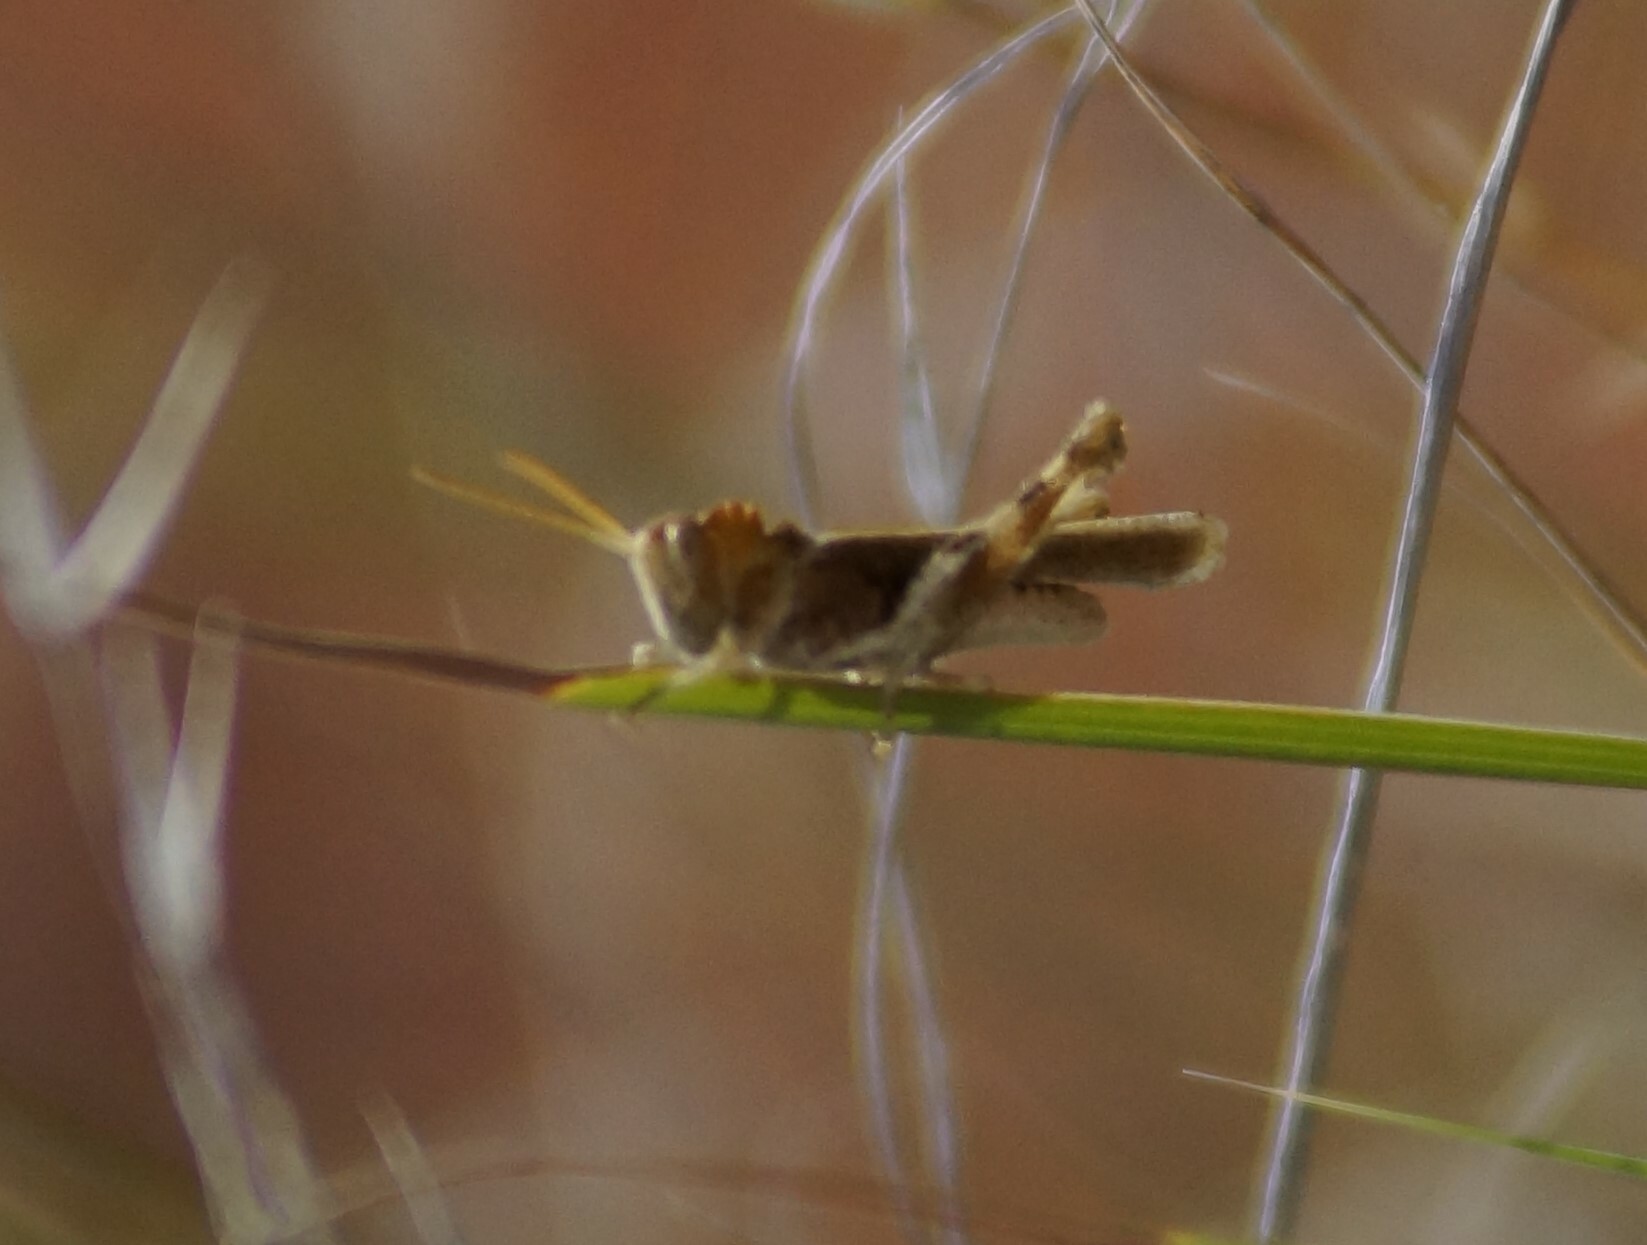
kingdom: Animalia
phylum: Arthropoda
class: Insecta
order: Orthoptera
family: Acrididae
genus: Ecphantus
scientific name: Ecphantus quadrilobus
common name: Crested tooth grinder
